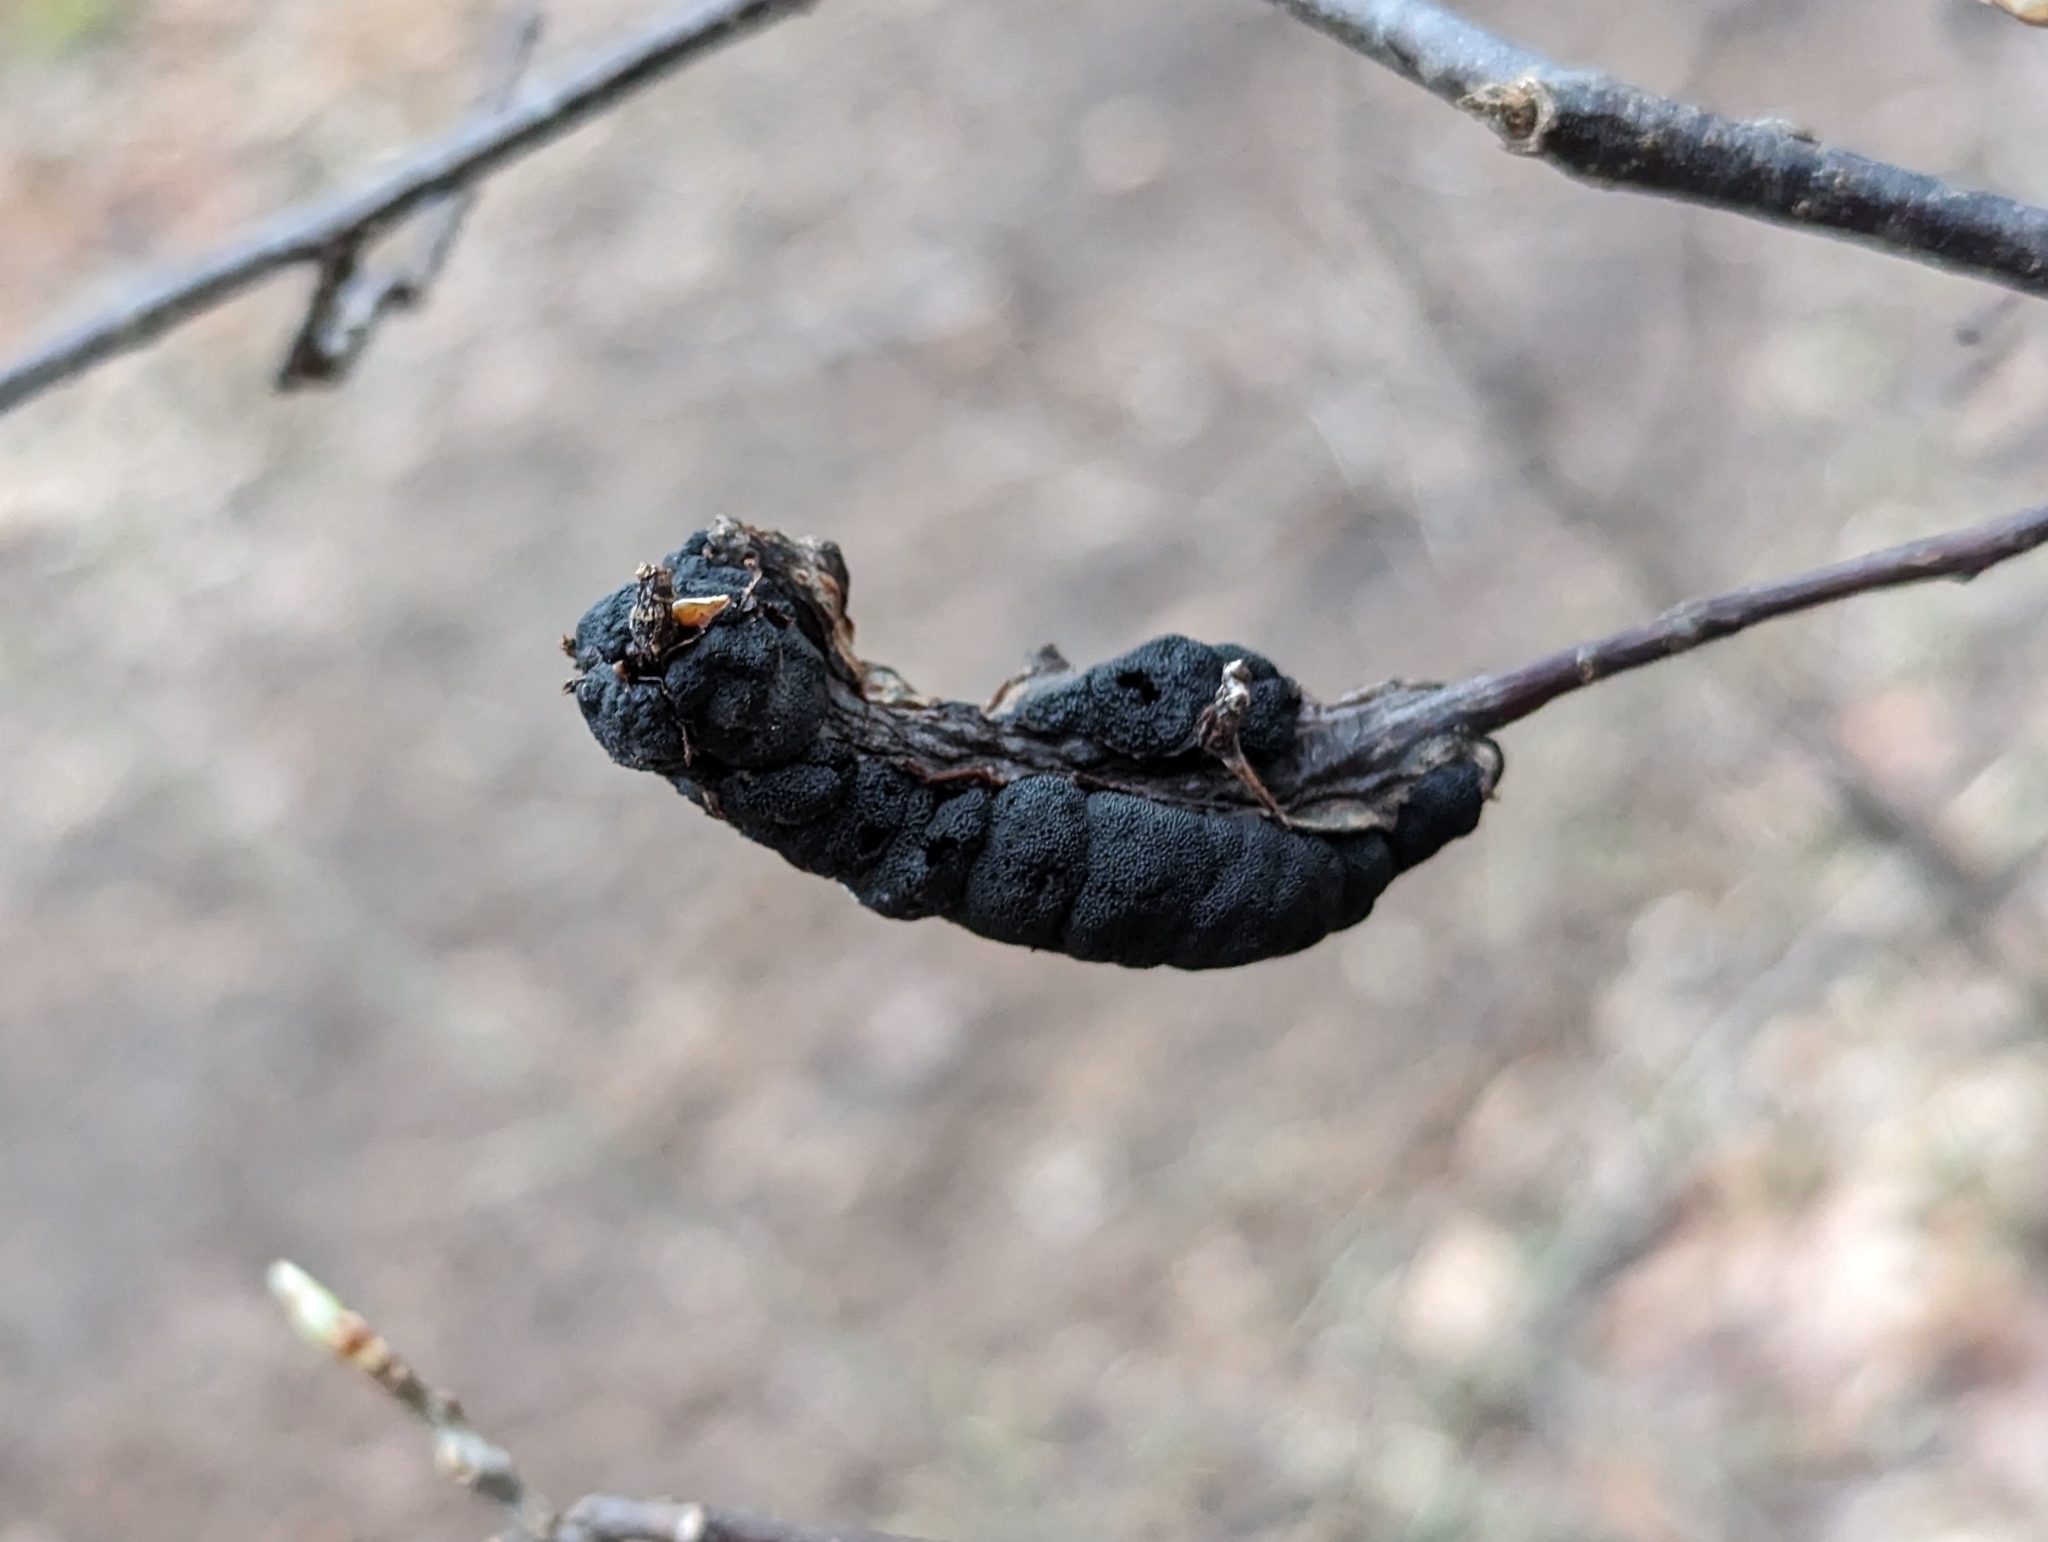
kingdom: Fungi
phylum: Ascomycota
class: Dothideomycetes
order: Venturiales
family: Venturiaceae
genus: Apiosporina
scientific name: Apiosporina morbosa
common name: Black knot
